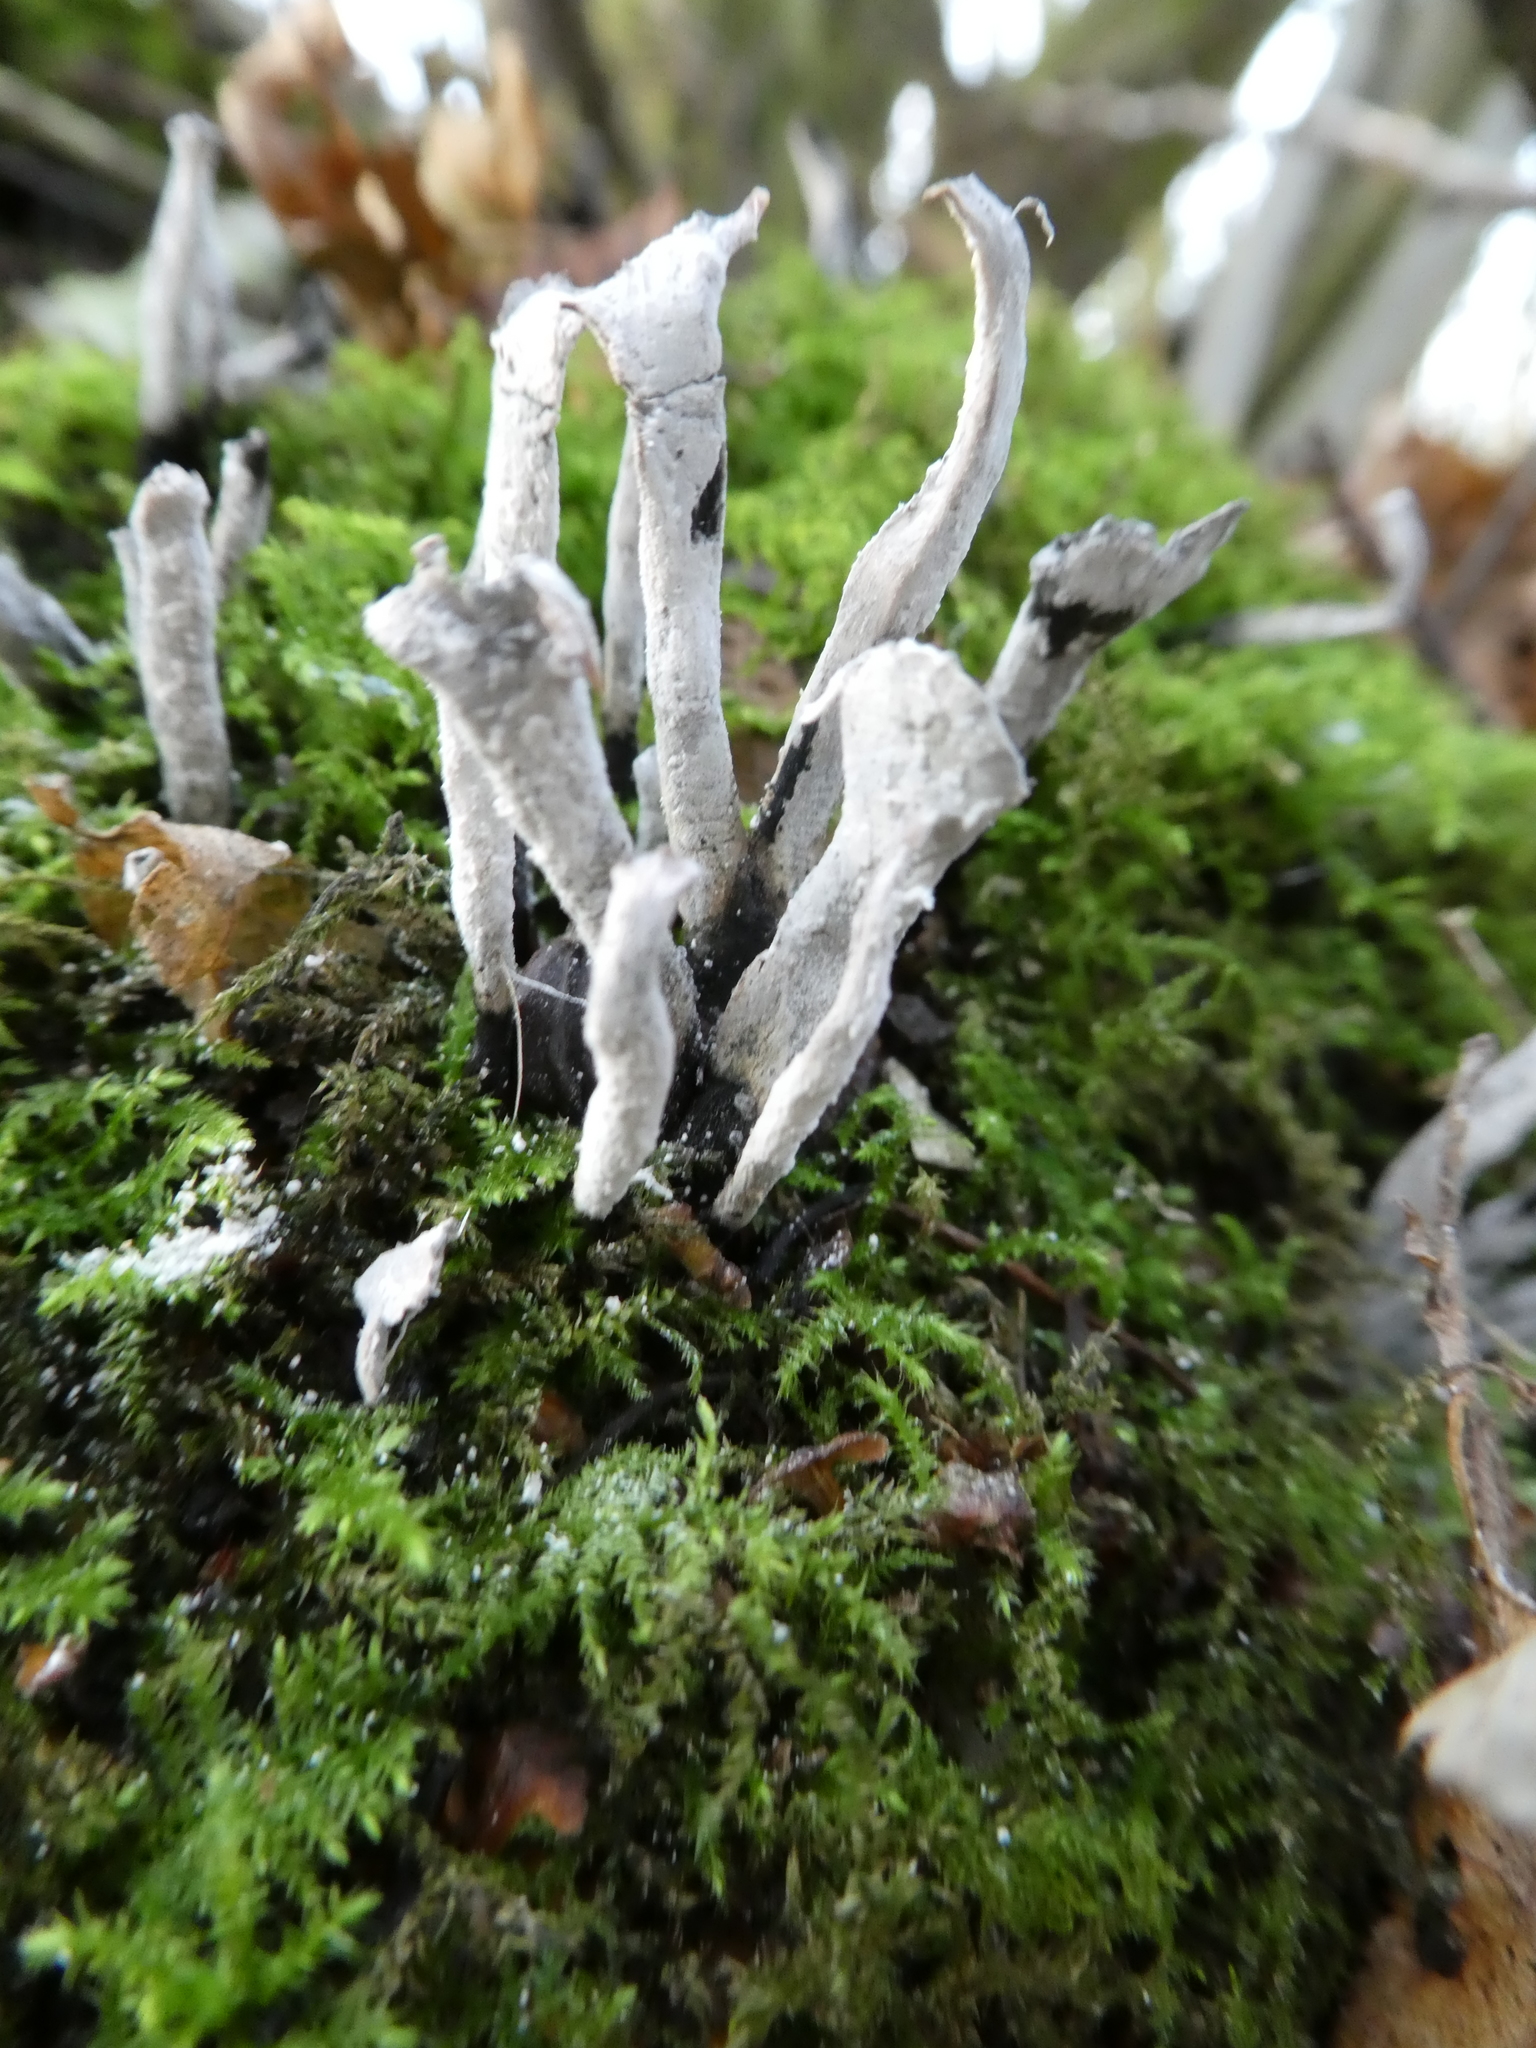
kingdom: Fungi
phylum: Ascomycota
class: Sordariomycetes
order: Xylariales
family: Xylariaceae
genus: Xylaria
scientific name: Xylaria hypoxylon
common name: Candle-snuff fungus
